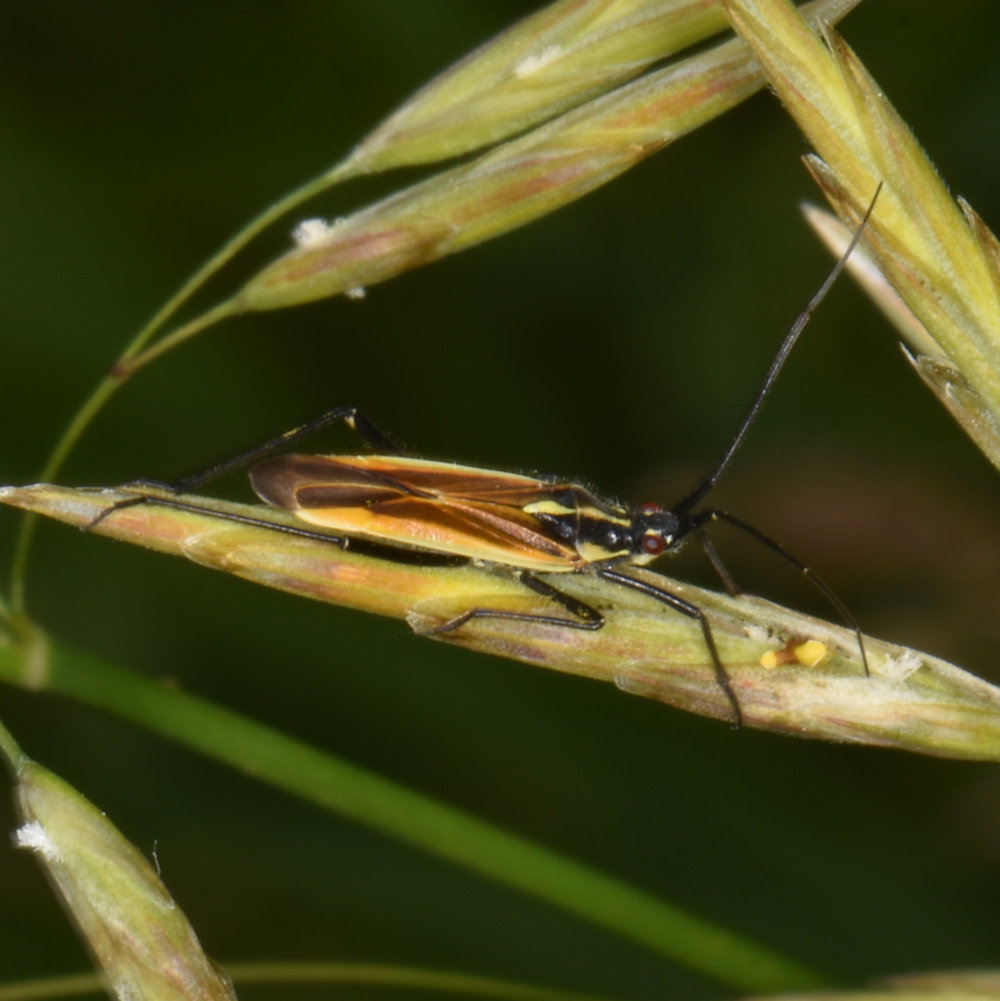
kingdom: Animalia
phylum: Arthropoda
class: Insecta
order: Hemiptera
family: Miridae
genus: Leptopterna
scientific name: Leptopterna dolabrata
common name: Meadow plant bug
